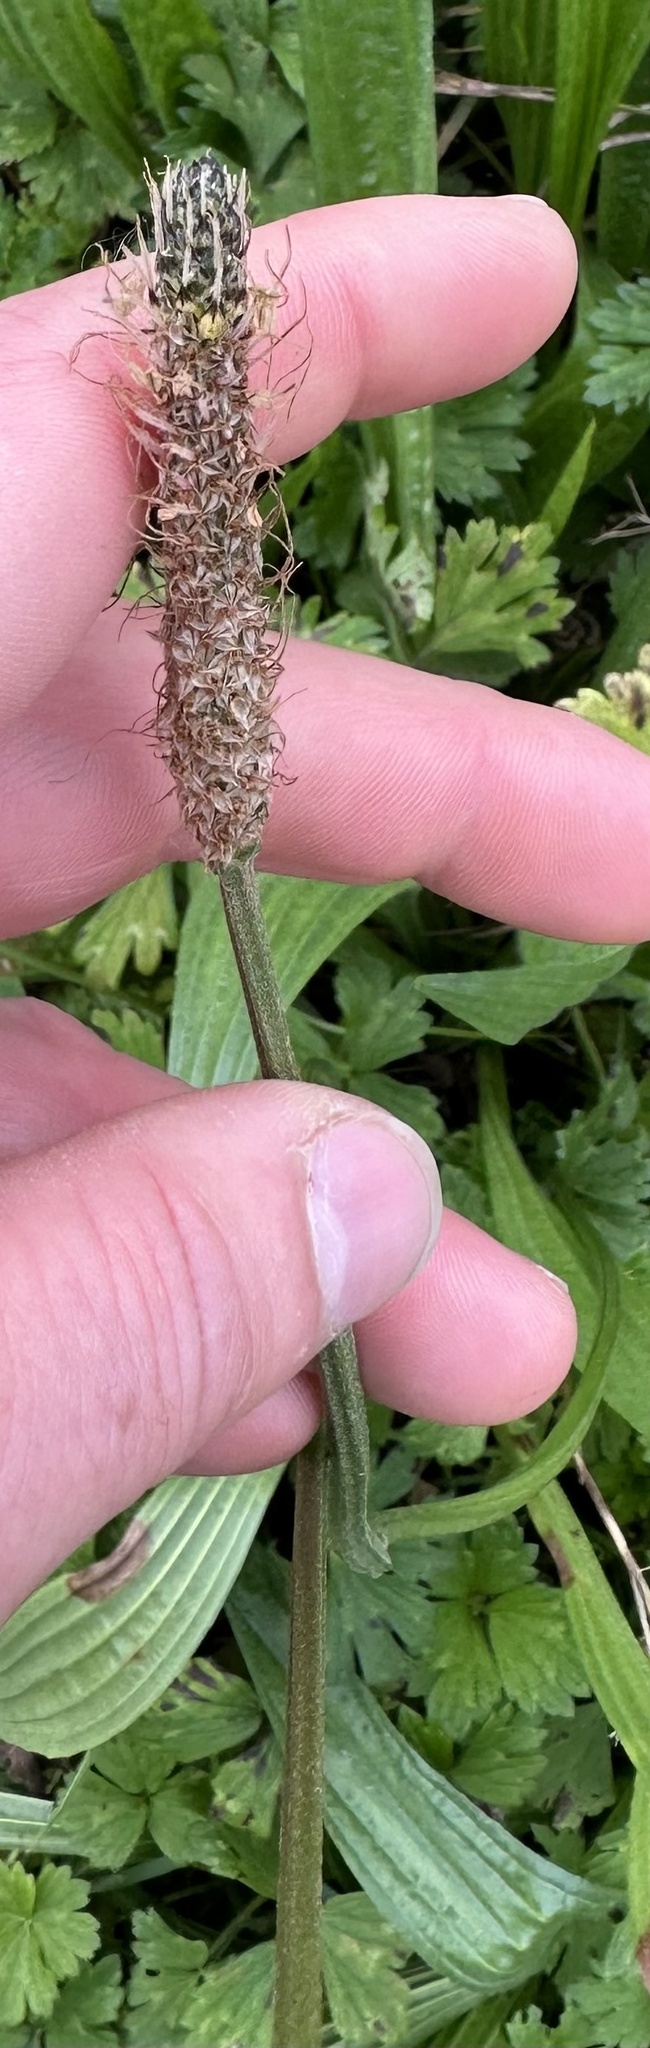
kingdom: Plantae
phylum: Tracheophyta
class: Magnoliopsida
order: Lamiales
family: Plantaginaceae
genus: Plantago
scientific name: Plantago lanceolata
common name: Ribwort plantain
